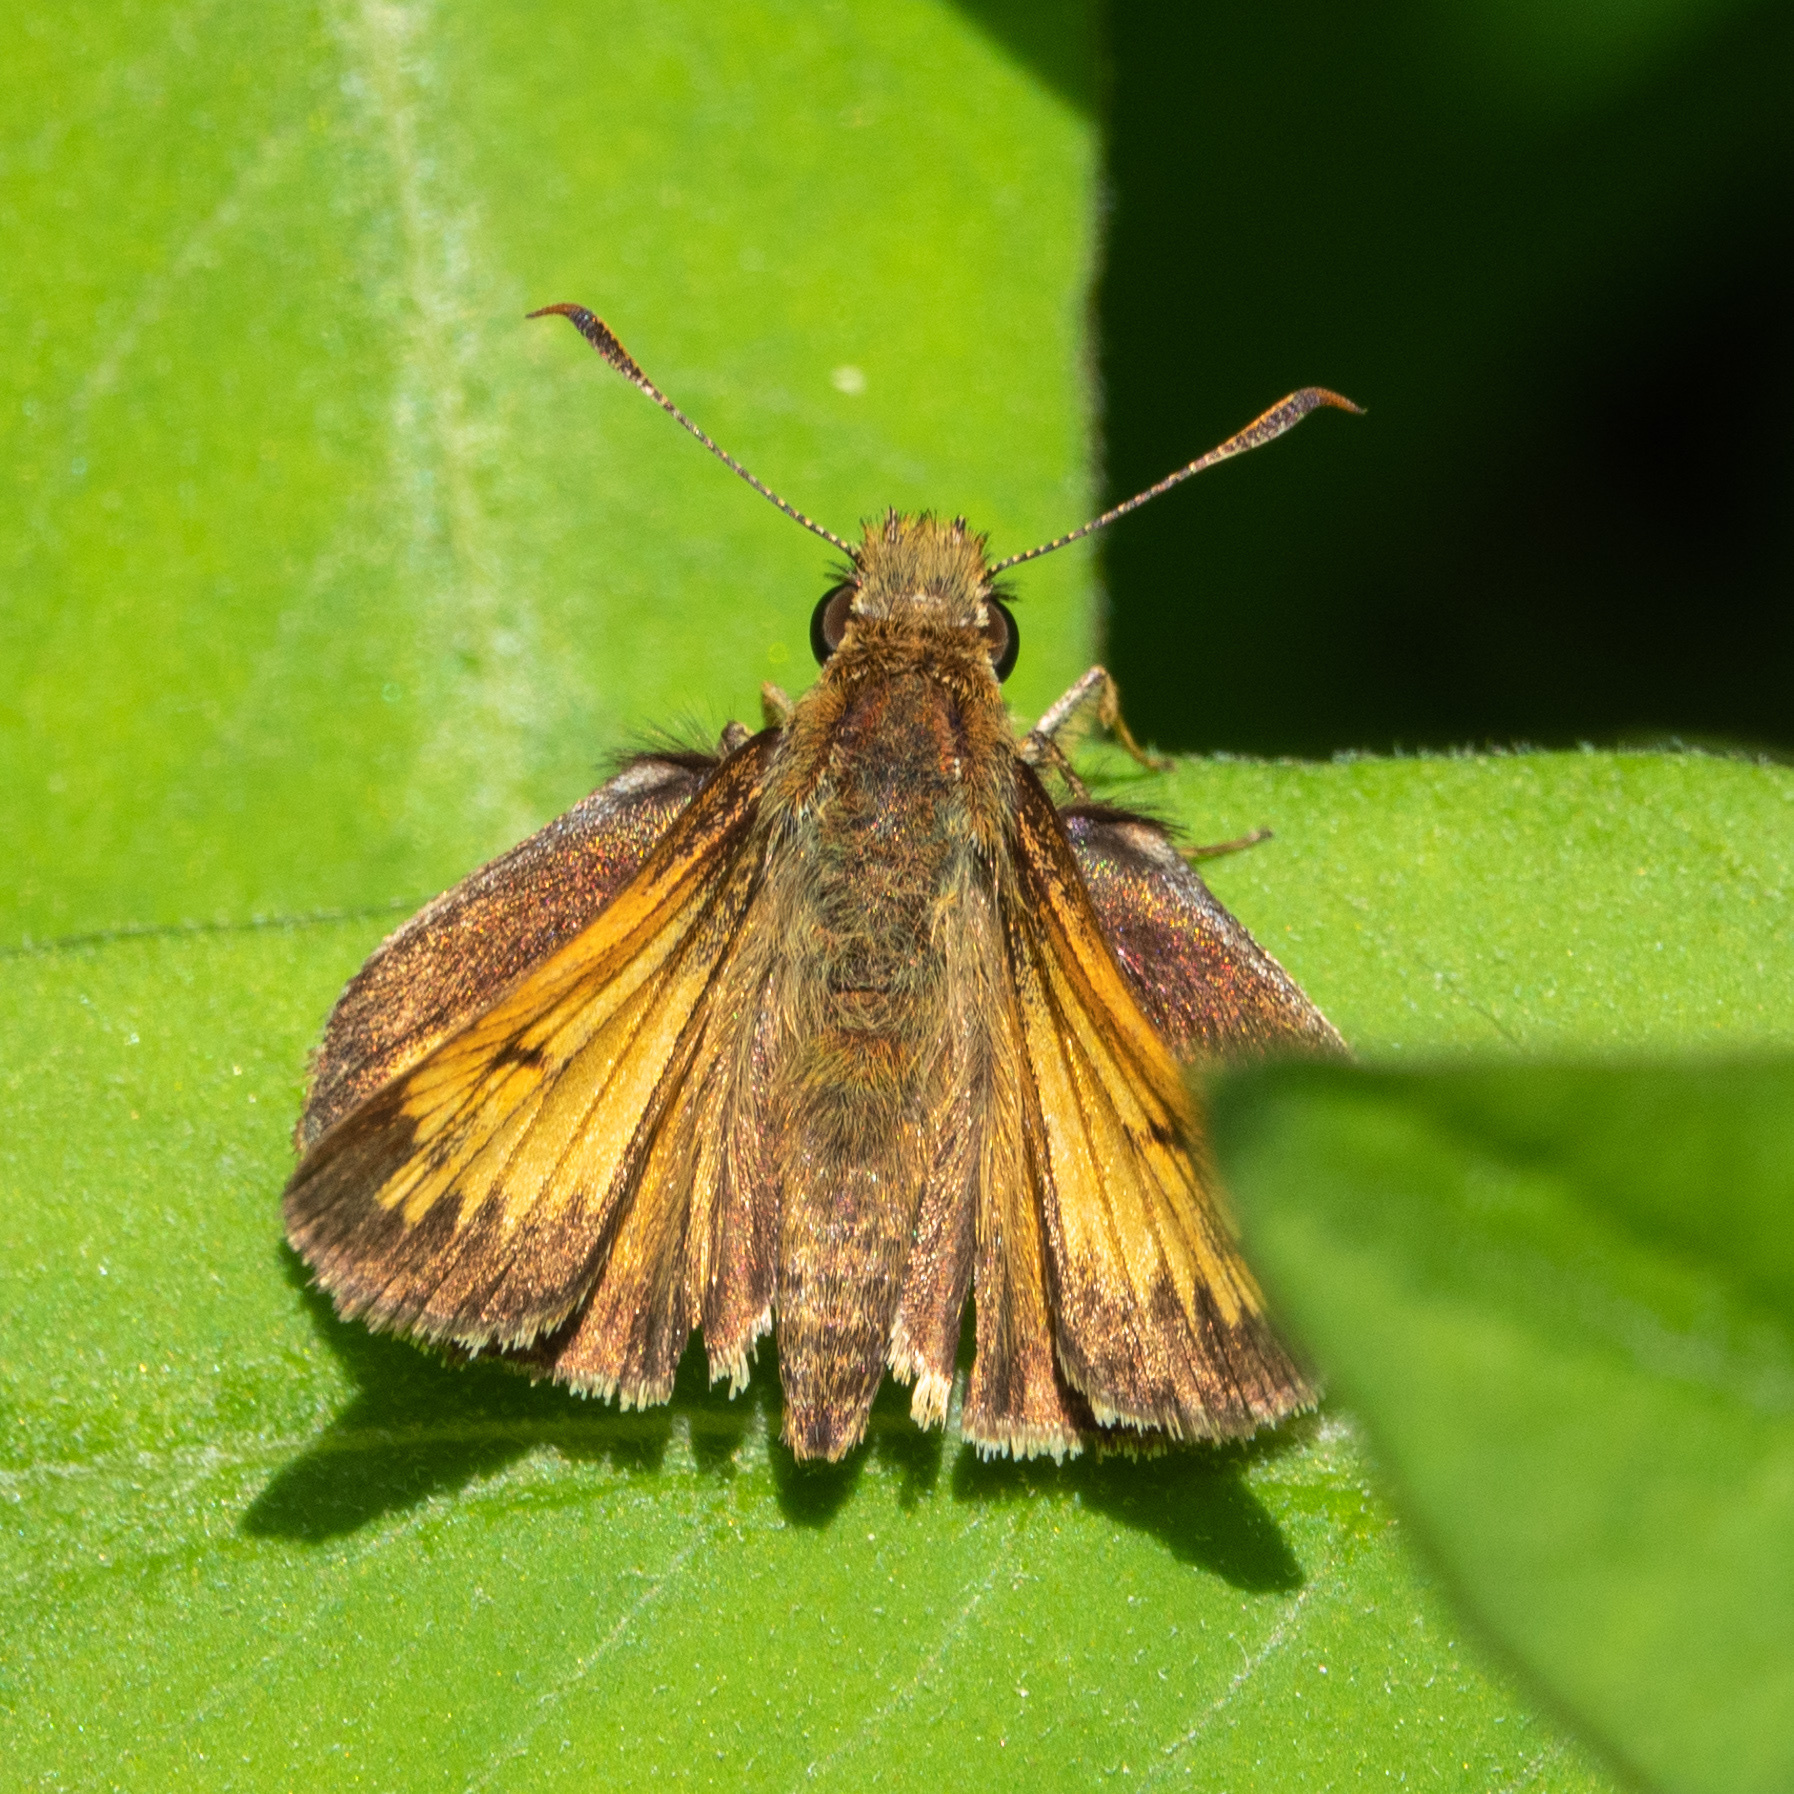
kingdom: Animalia
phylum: Arthropoda
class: Insecta
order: Lepidoptera
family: Hesperiidae
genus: Lon
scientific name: Lon hobomok
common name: Hobomok skipper
